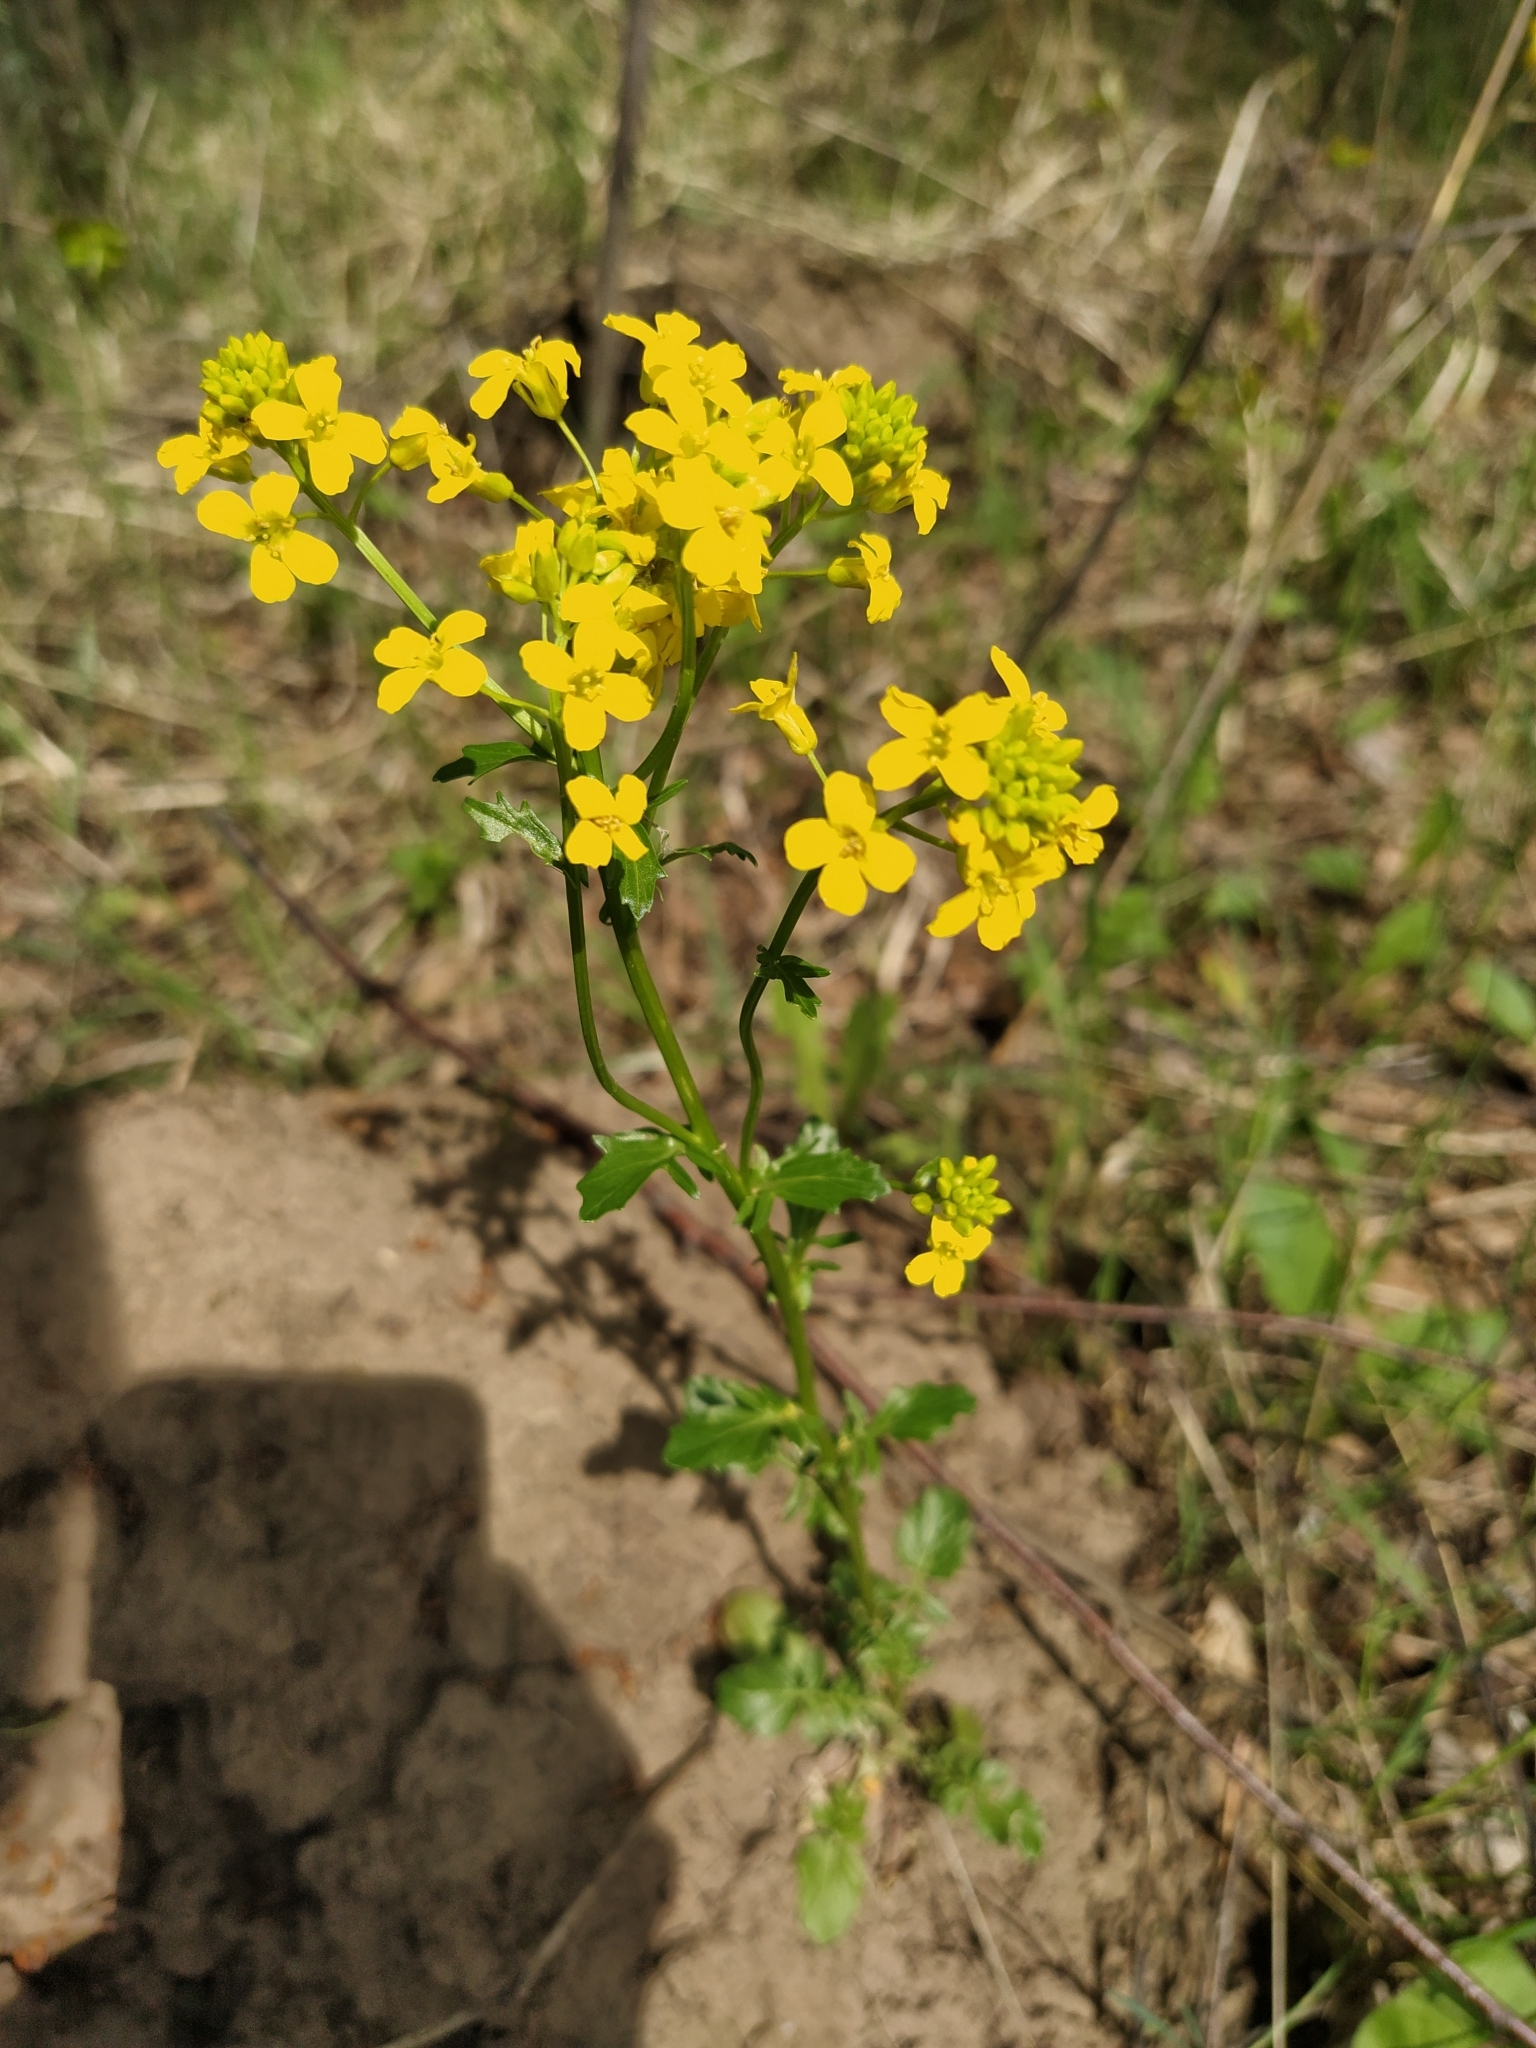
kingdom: Plantae
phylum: Tracheophyta
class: Magnoliopsida
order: Brassicales
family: Brassicaceae
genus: Barbarea
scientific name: Barbarea vulgaris
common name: Cressy-greens
